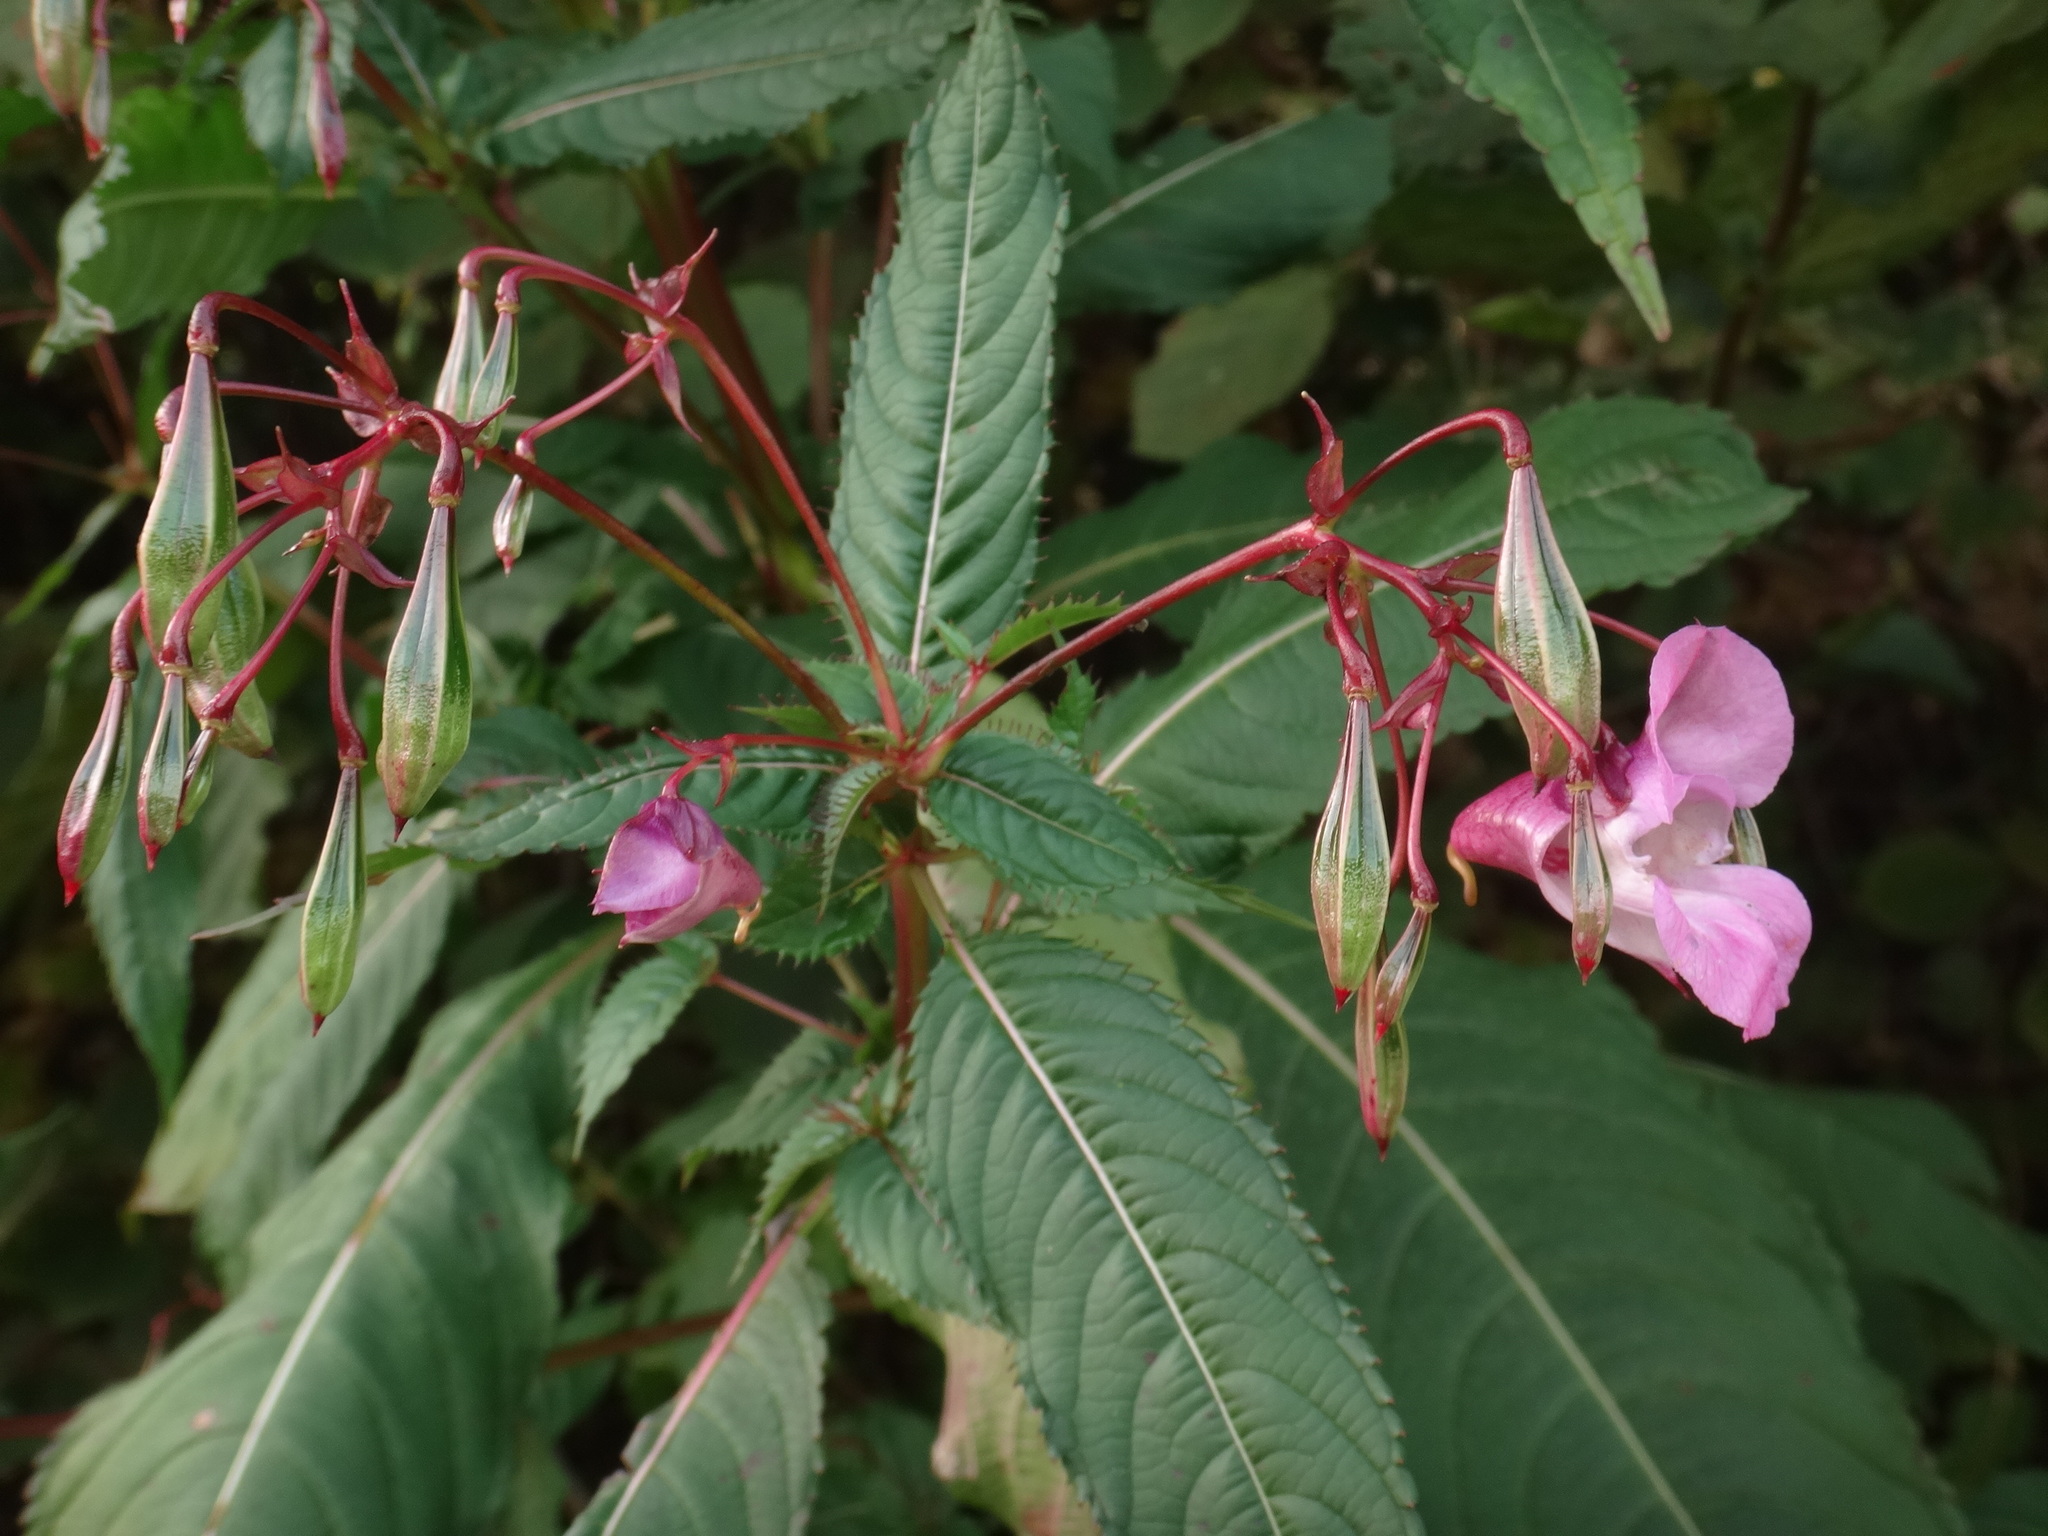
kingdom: Plantae
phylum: Tracheophyta
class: Magnoliopsida
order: Ericales
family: Balsaminaceae
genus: Impatiens
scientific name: Impatiens glandulifera
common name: Himalayan balsam
